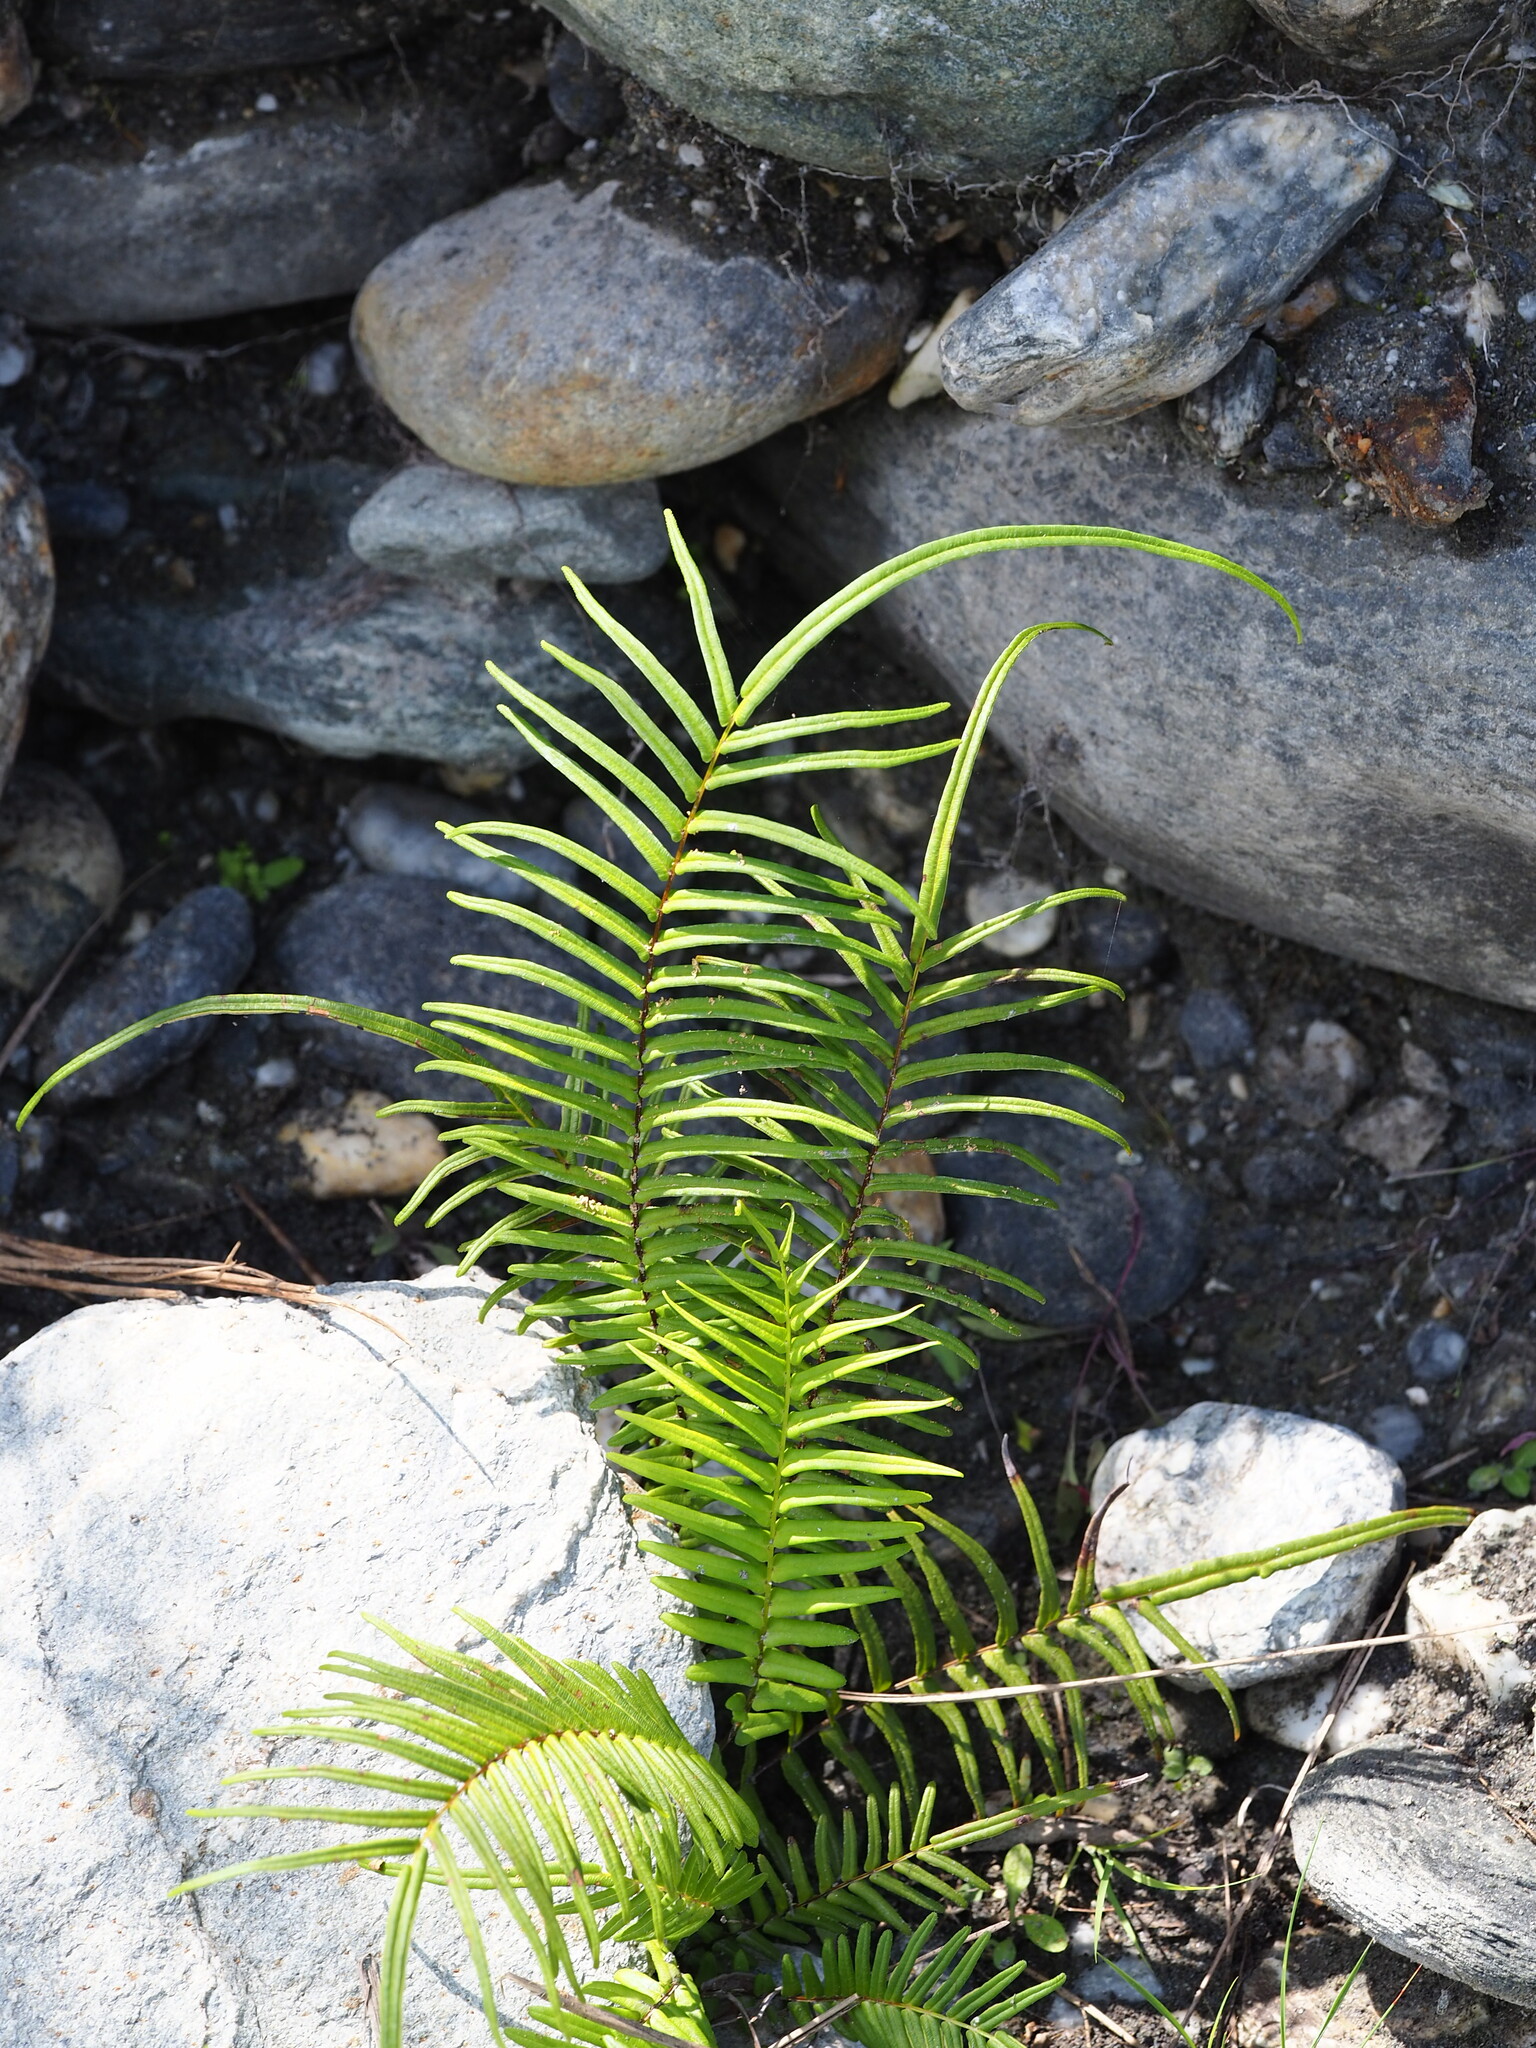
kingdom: Plantae
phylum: Tracheophyta
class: Polypodiopsida
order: Polypodiales
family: Pteridaceae
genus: Pteris
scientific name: Pteris vittata
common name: Ladder brake
